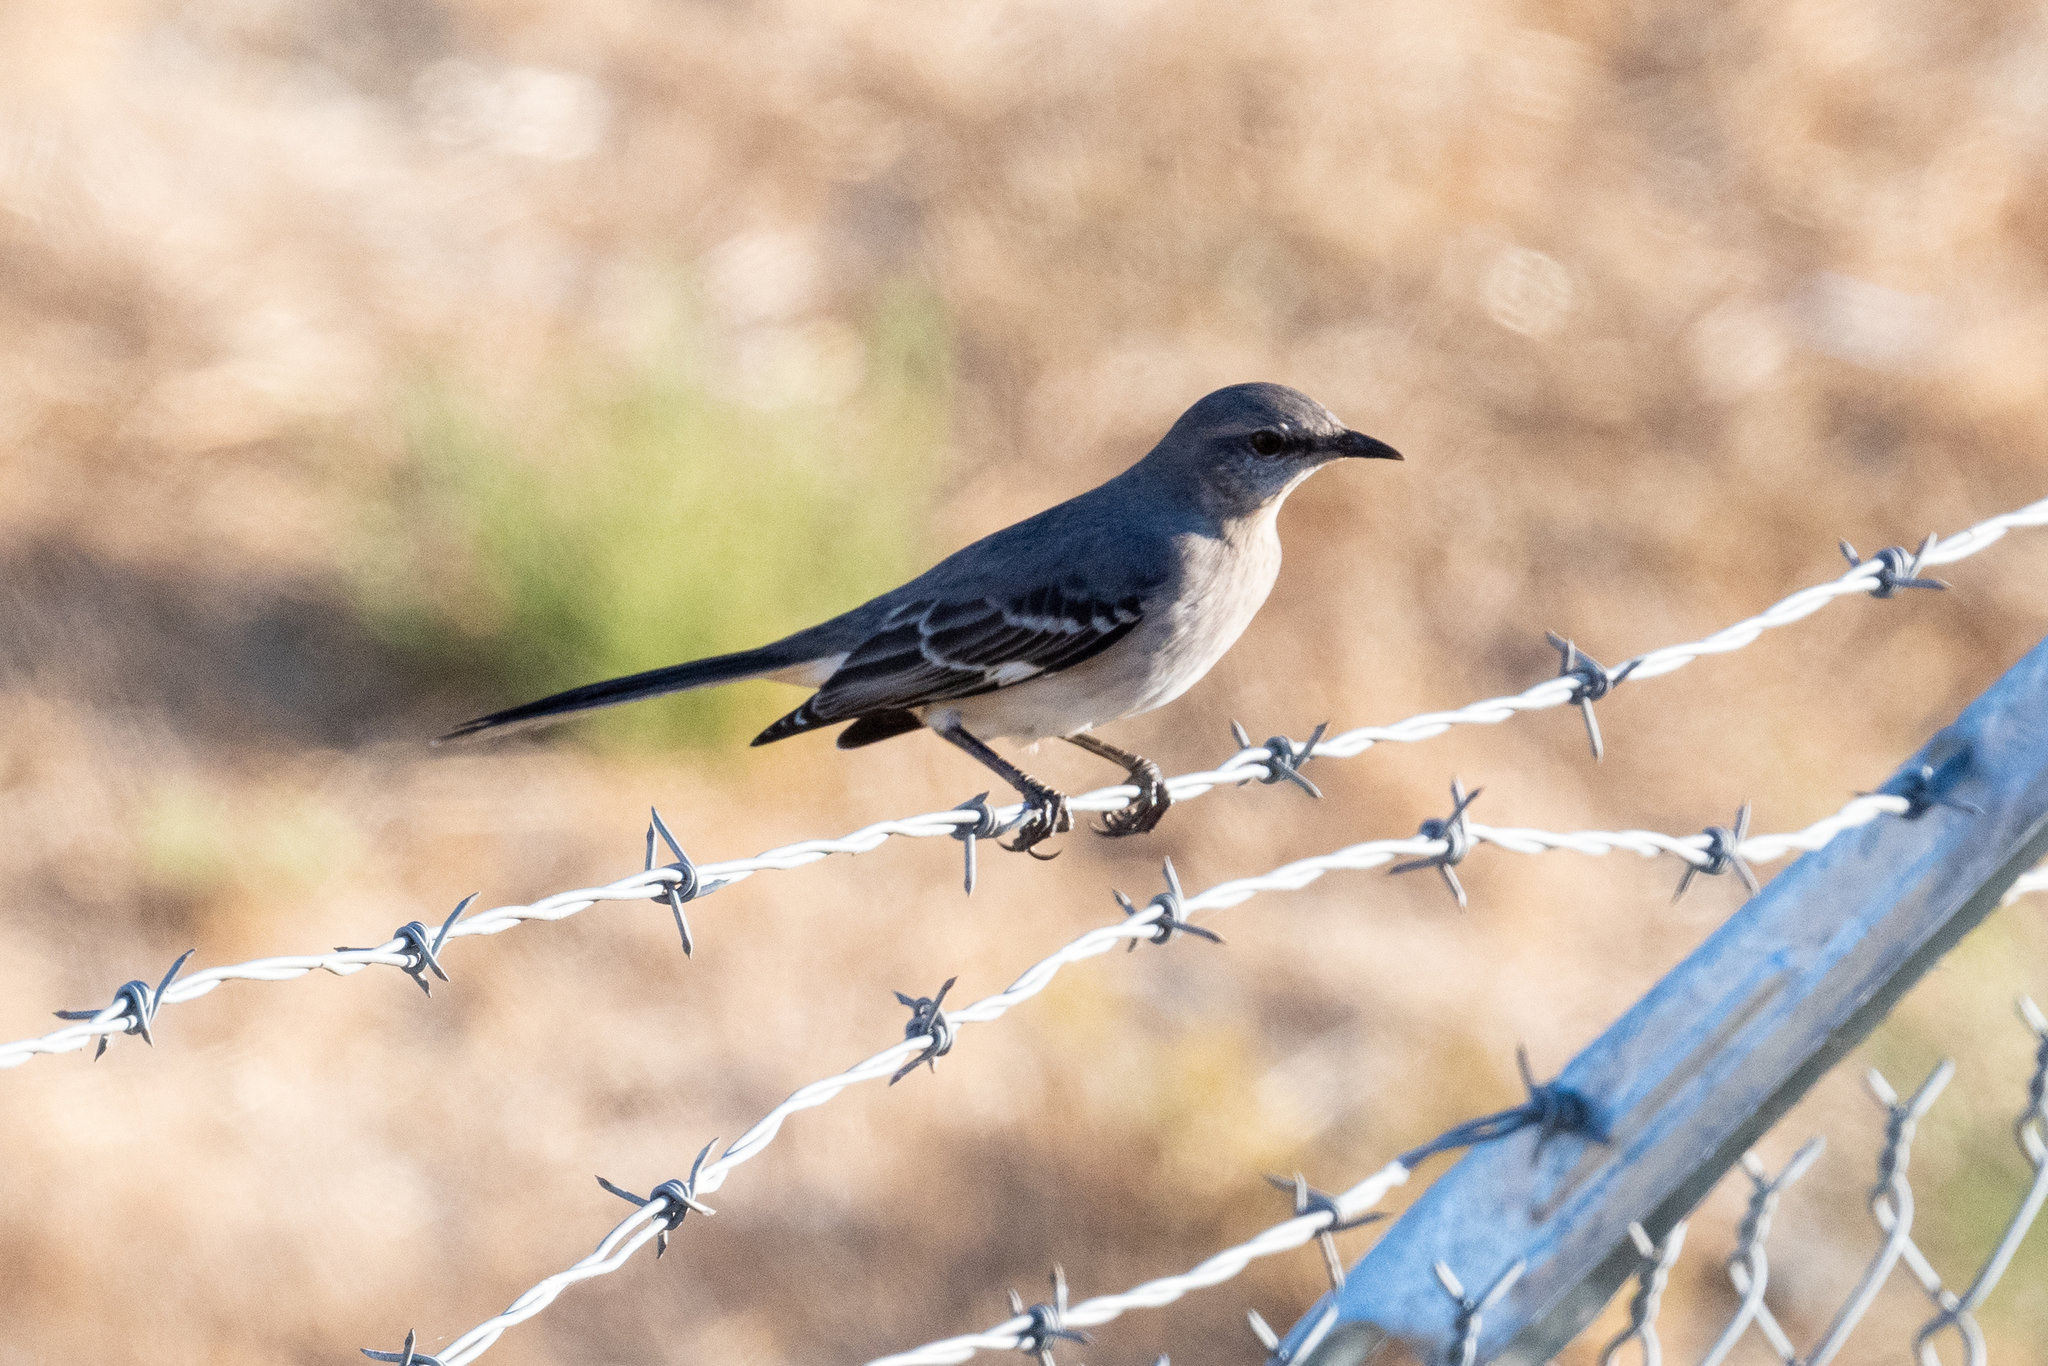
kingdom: Animalia
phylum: Chordata
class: Aves
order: Passeriformes
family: Mimidae
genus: Mimus
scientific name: Mimus polyglottos
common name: Northern mockingbird
